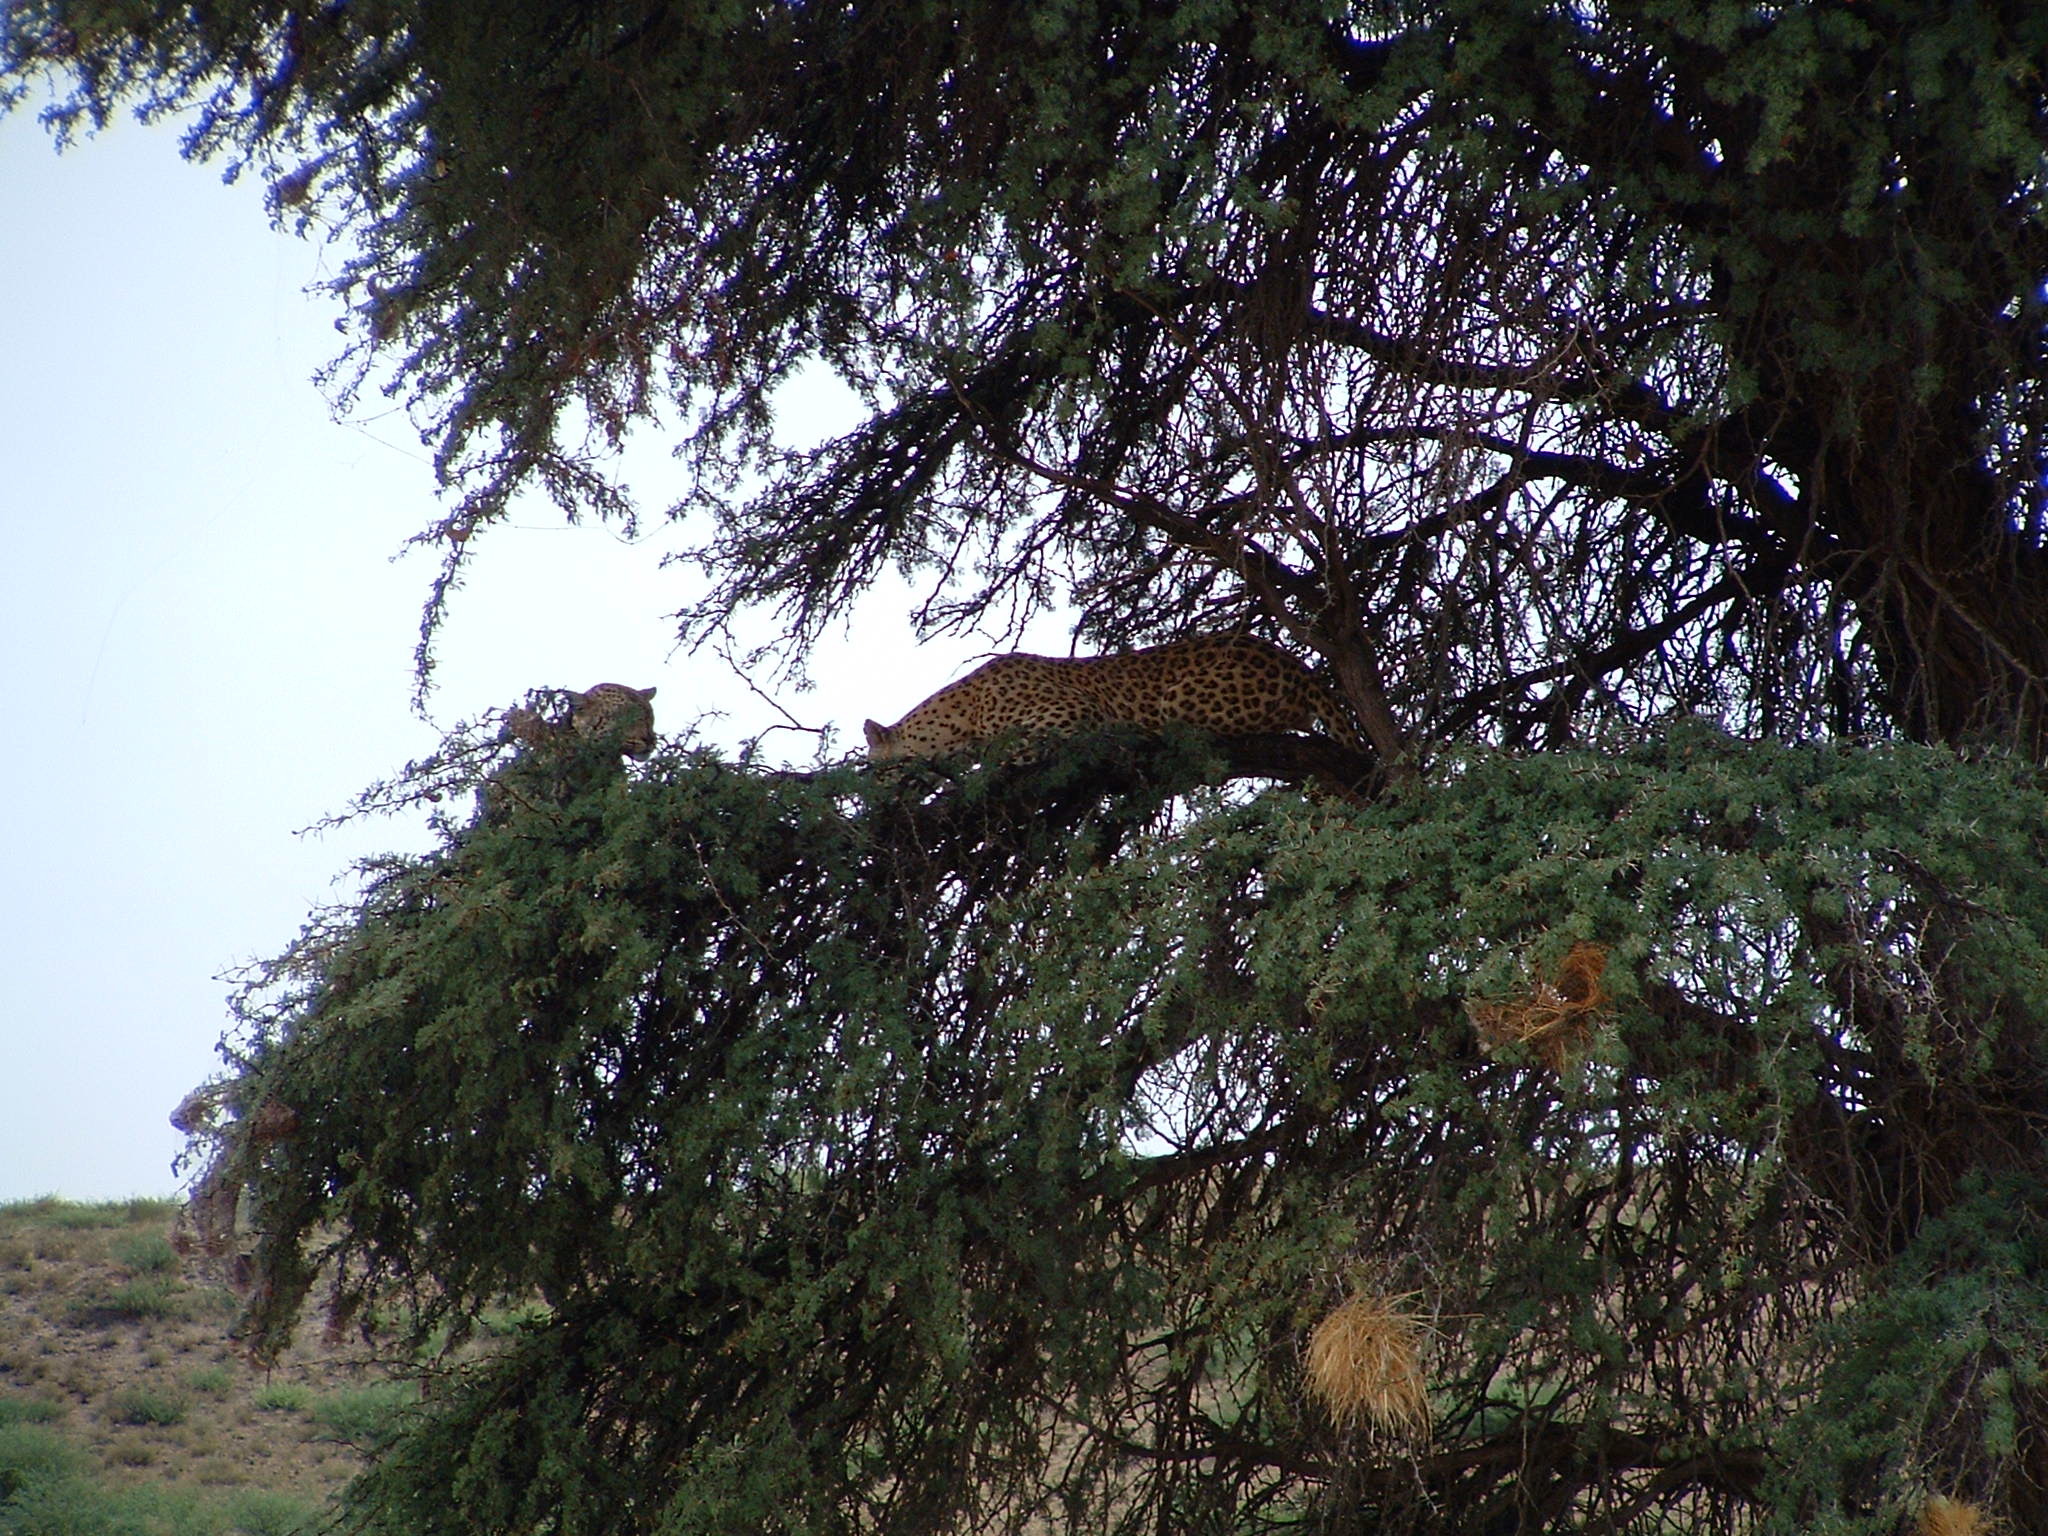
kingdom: Animalia
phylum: Chordata
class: Mammalia
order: Carnivora
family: Felidae
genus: Panthera
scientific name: Panthera pardus
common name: Leopard
